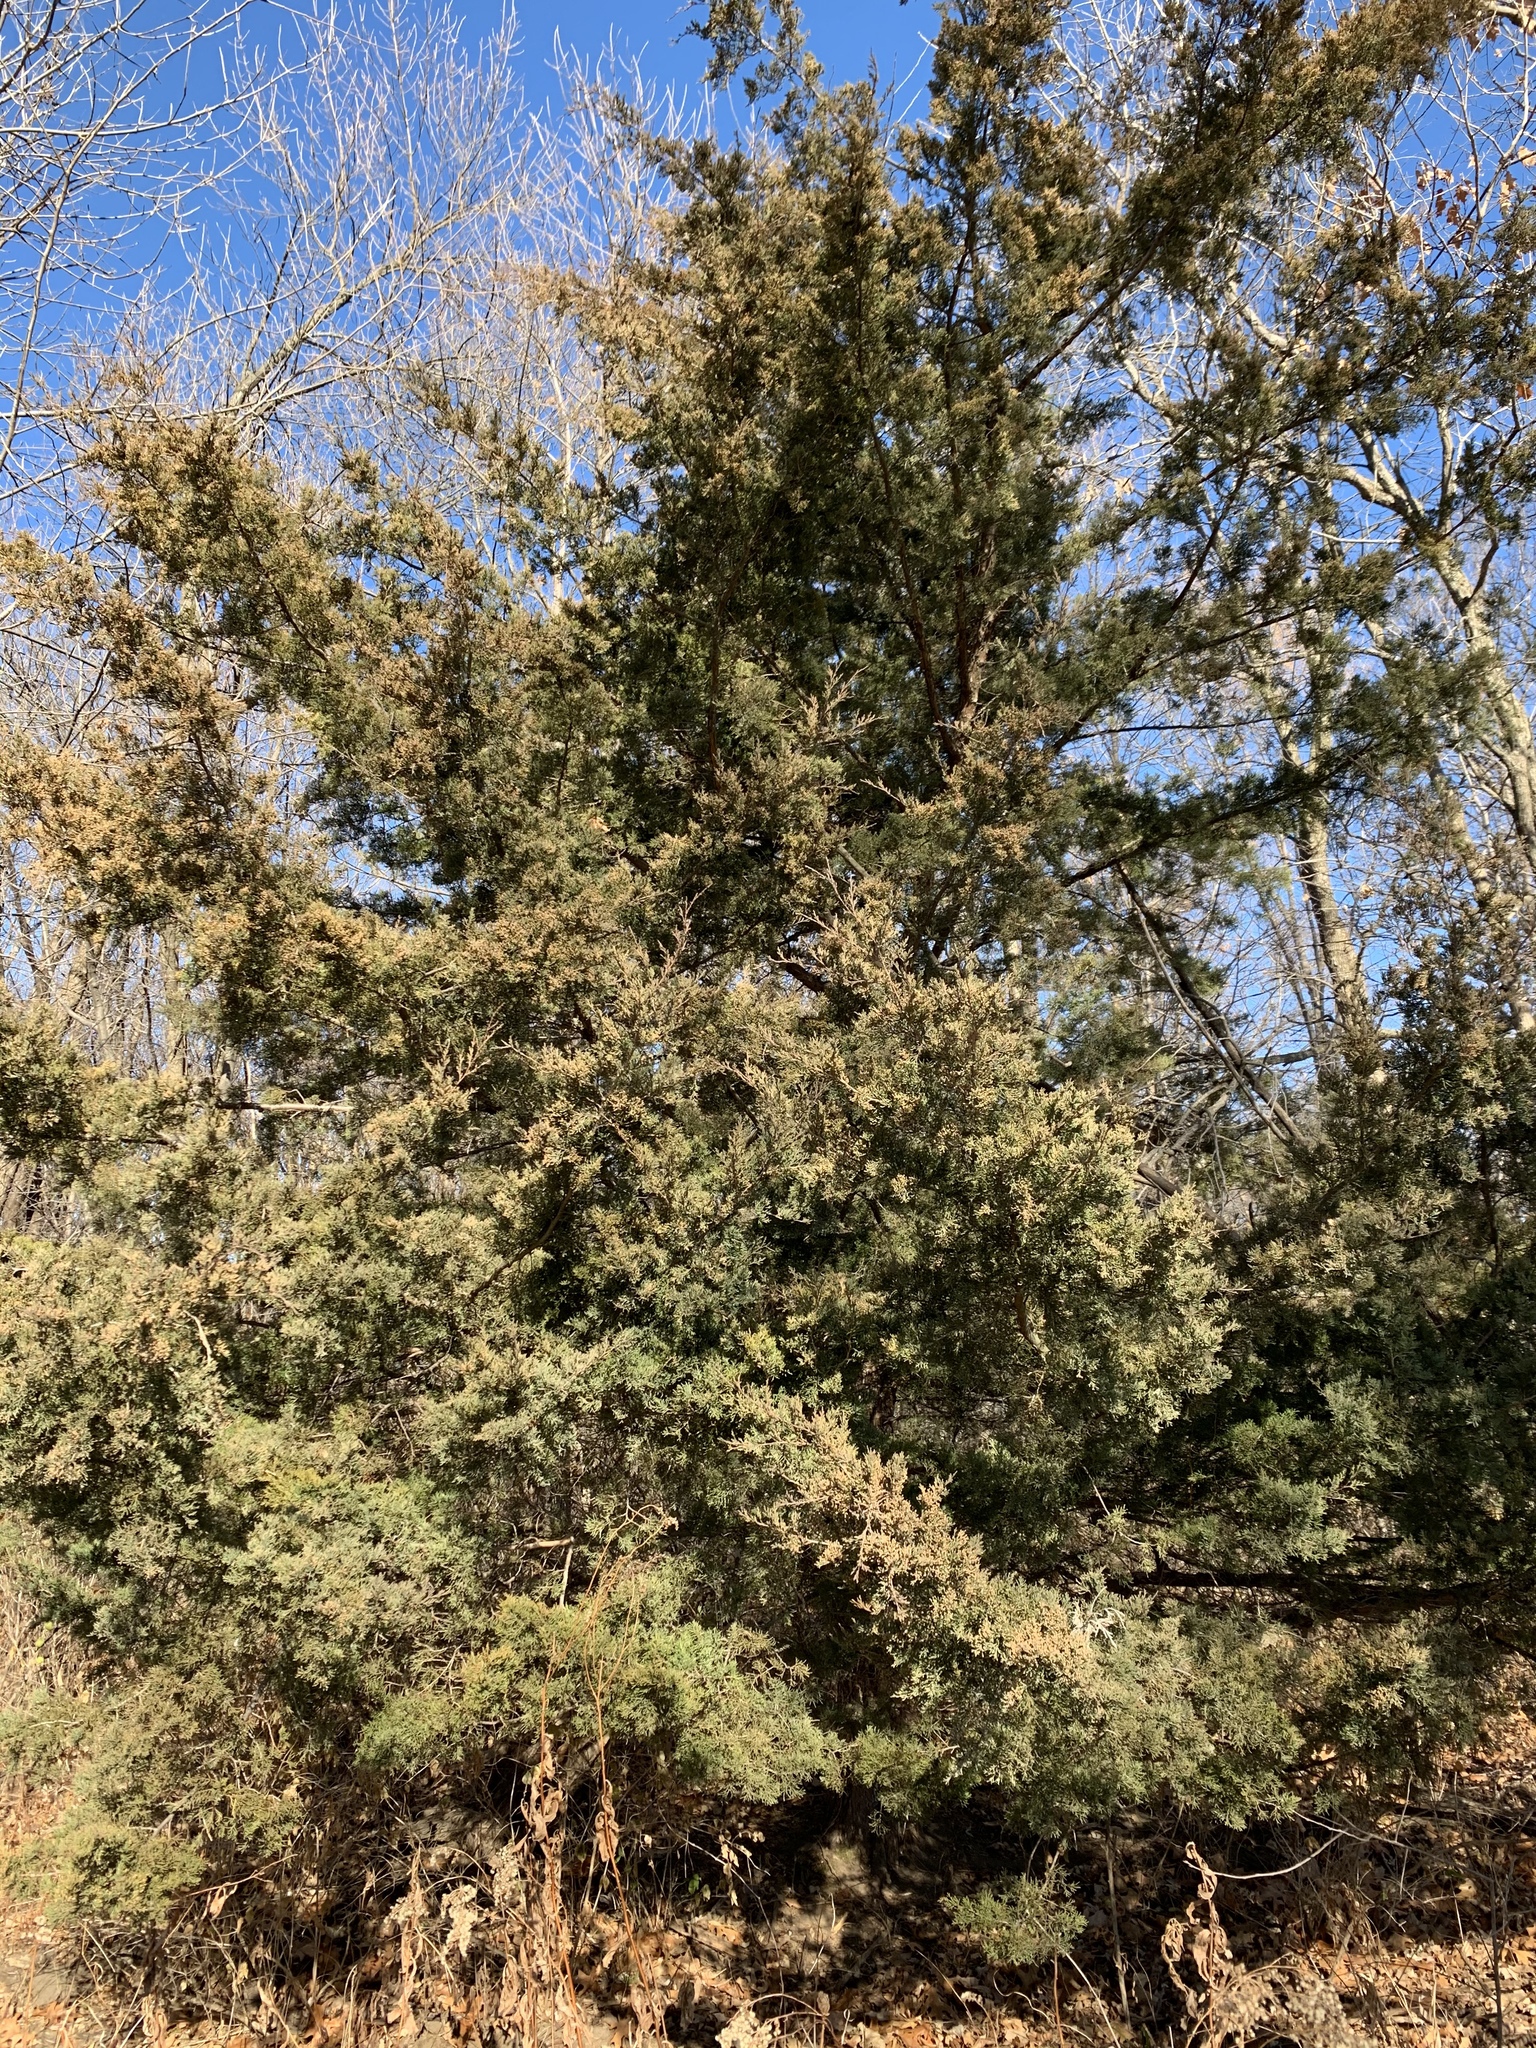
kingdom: Plantae
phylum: Tracheophyta
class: Pinopsida
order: Pinales
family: Cupressaceae
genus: Juniperus
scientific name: Juniperus virginiana
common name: Red juniper
